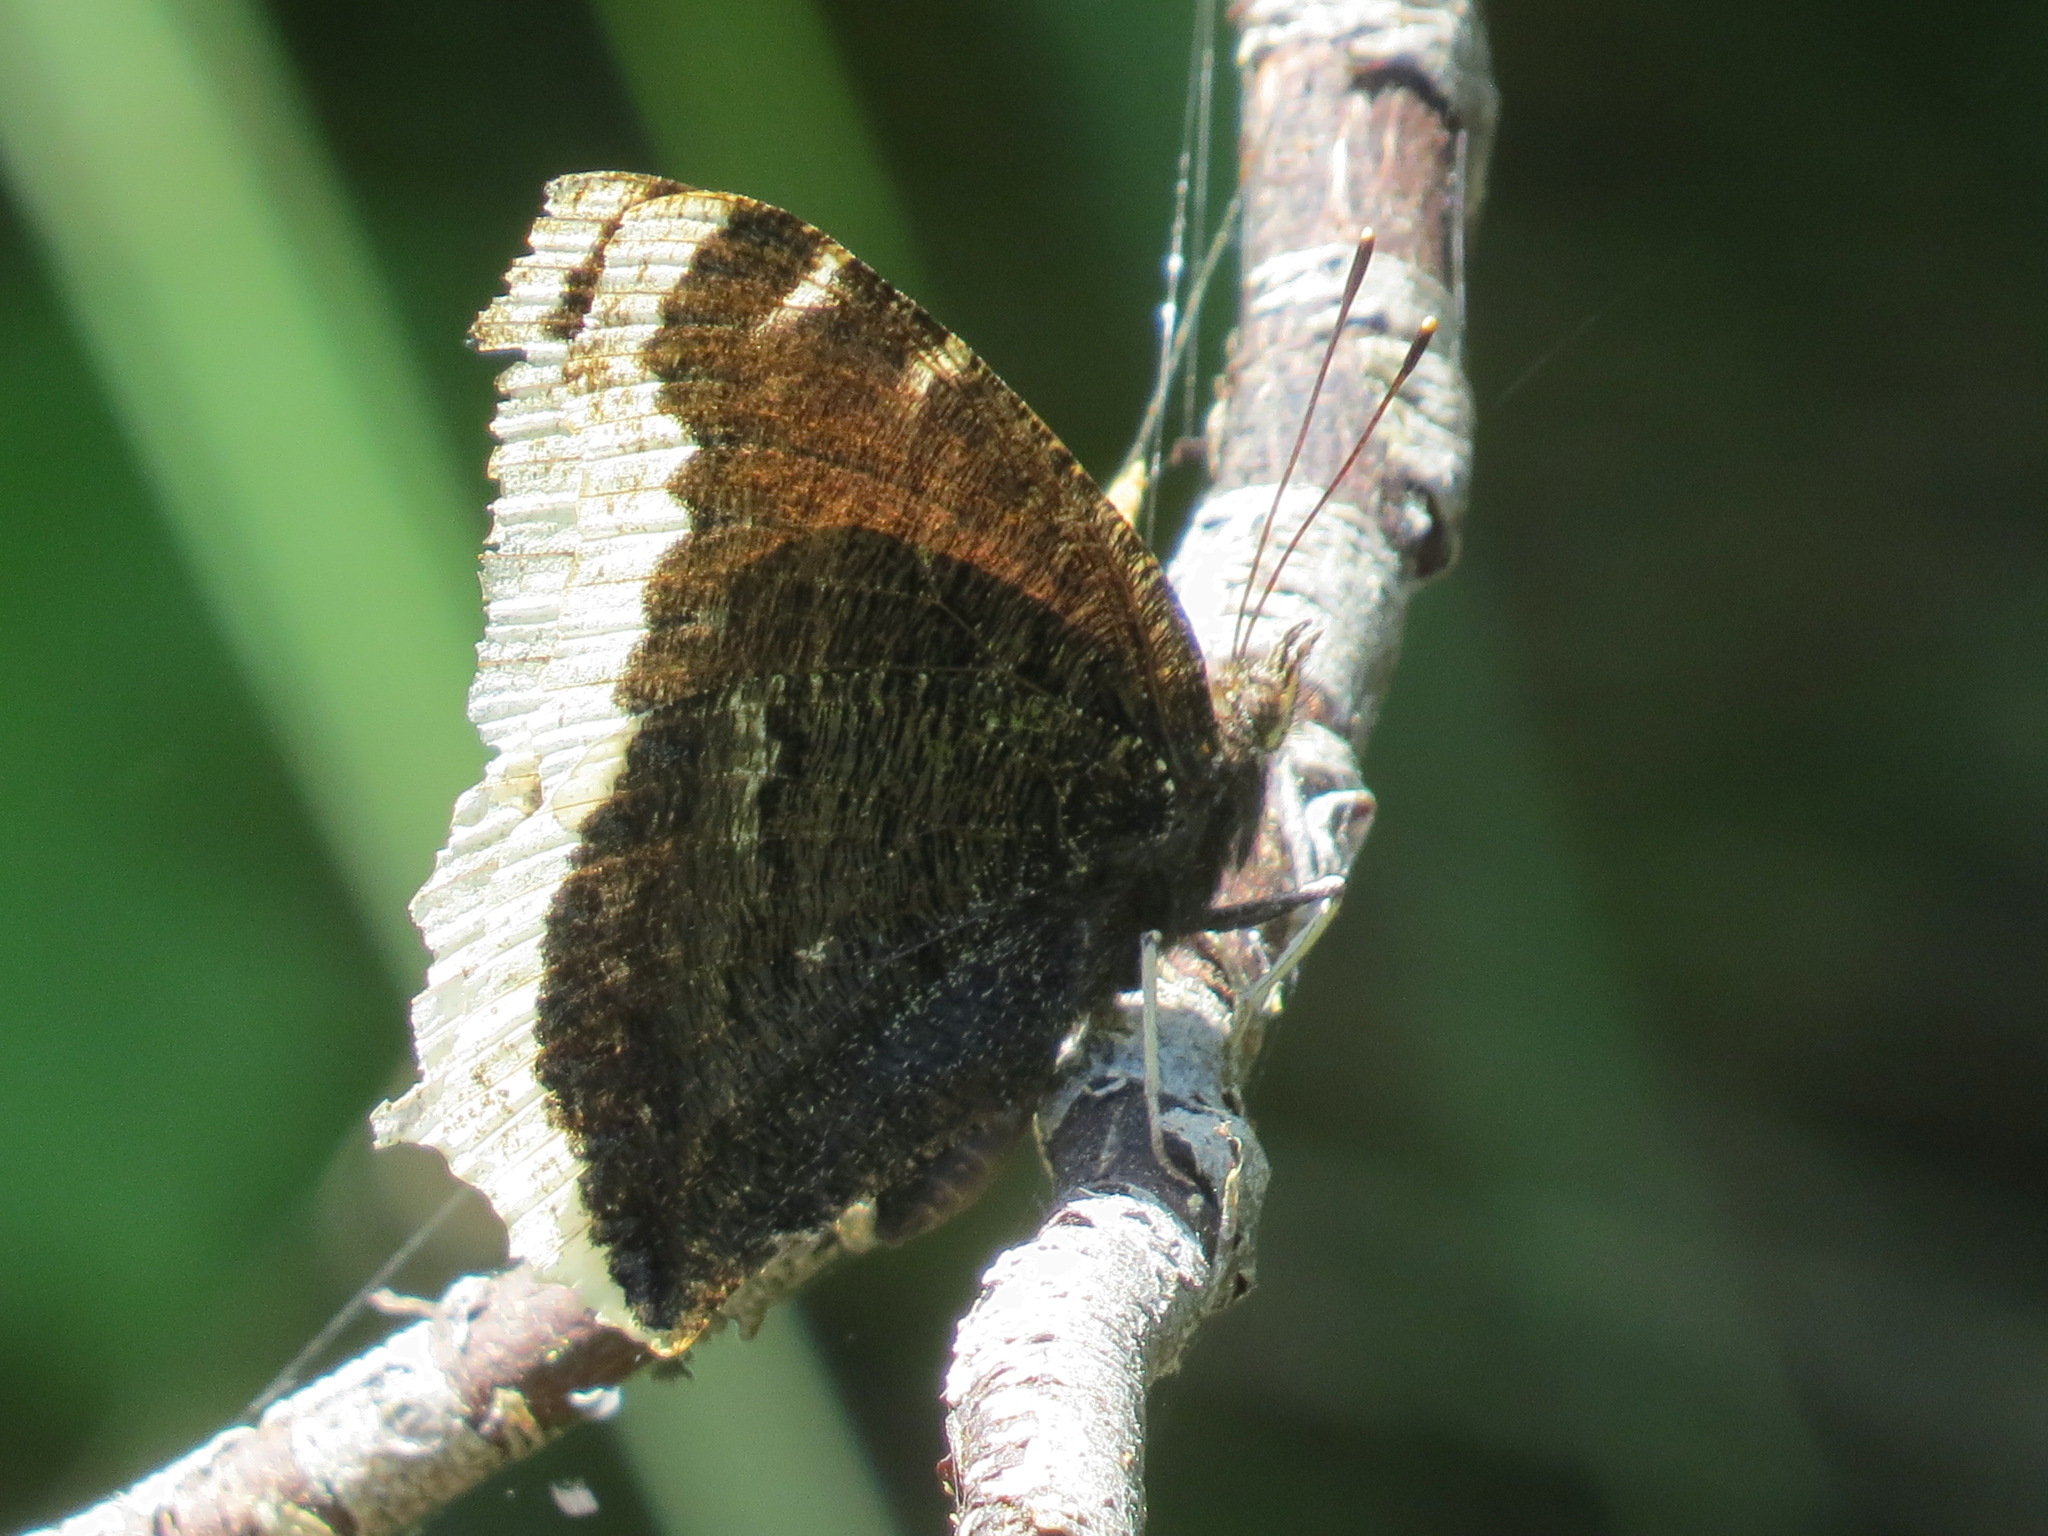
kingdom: Animalia
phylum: Arthropoda
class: Insecta
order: Lepidoptera
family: Nymphalidae
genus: Nymphalis
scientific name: Nymphalis antiopa
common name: Camberwell beauty
